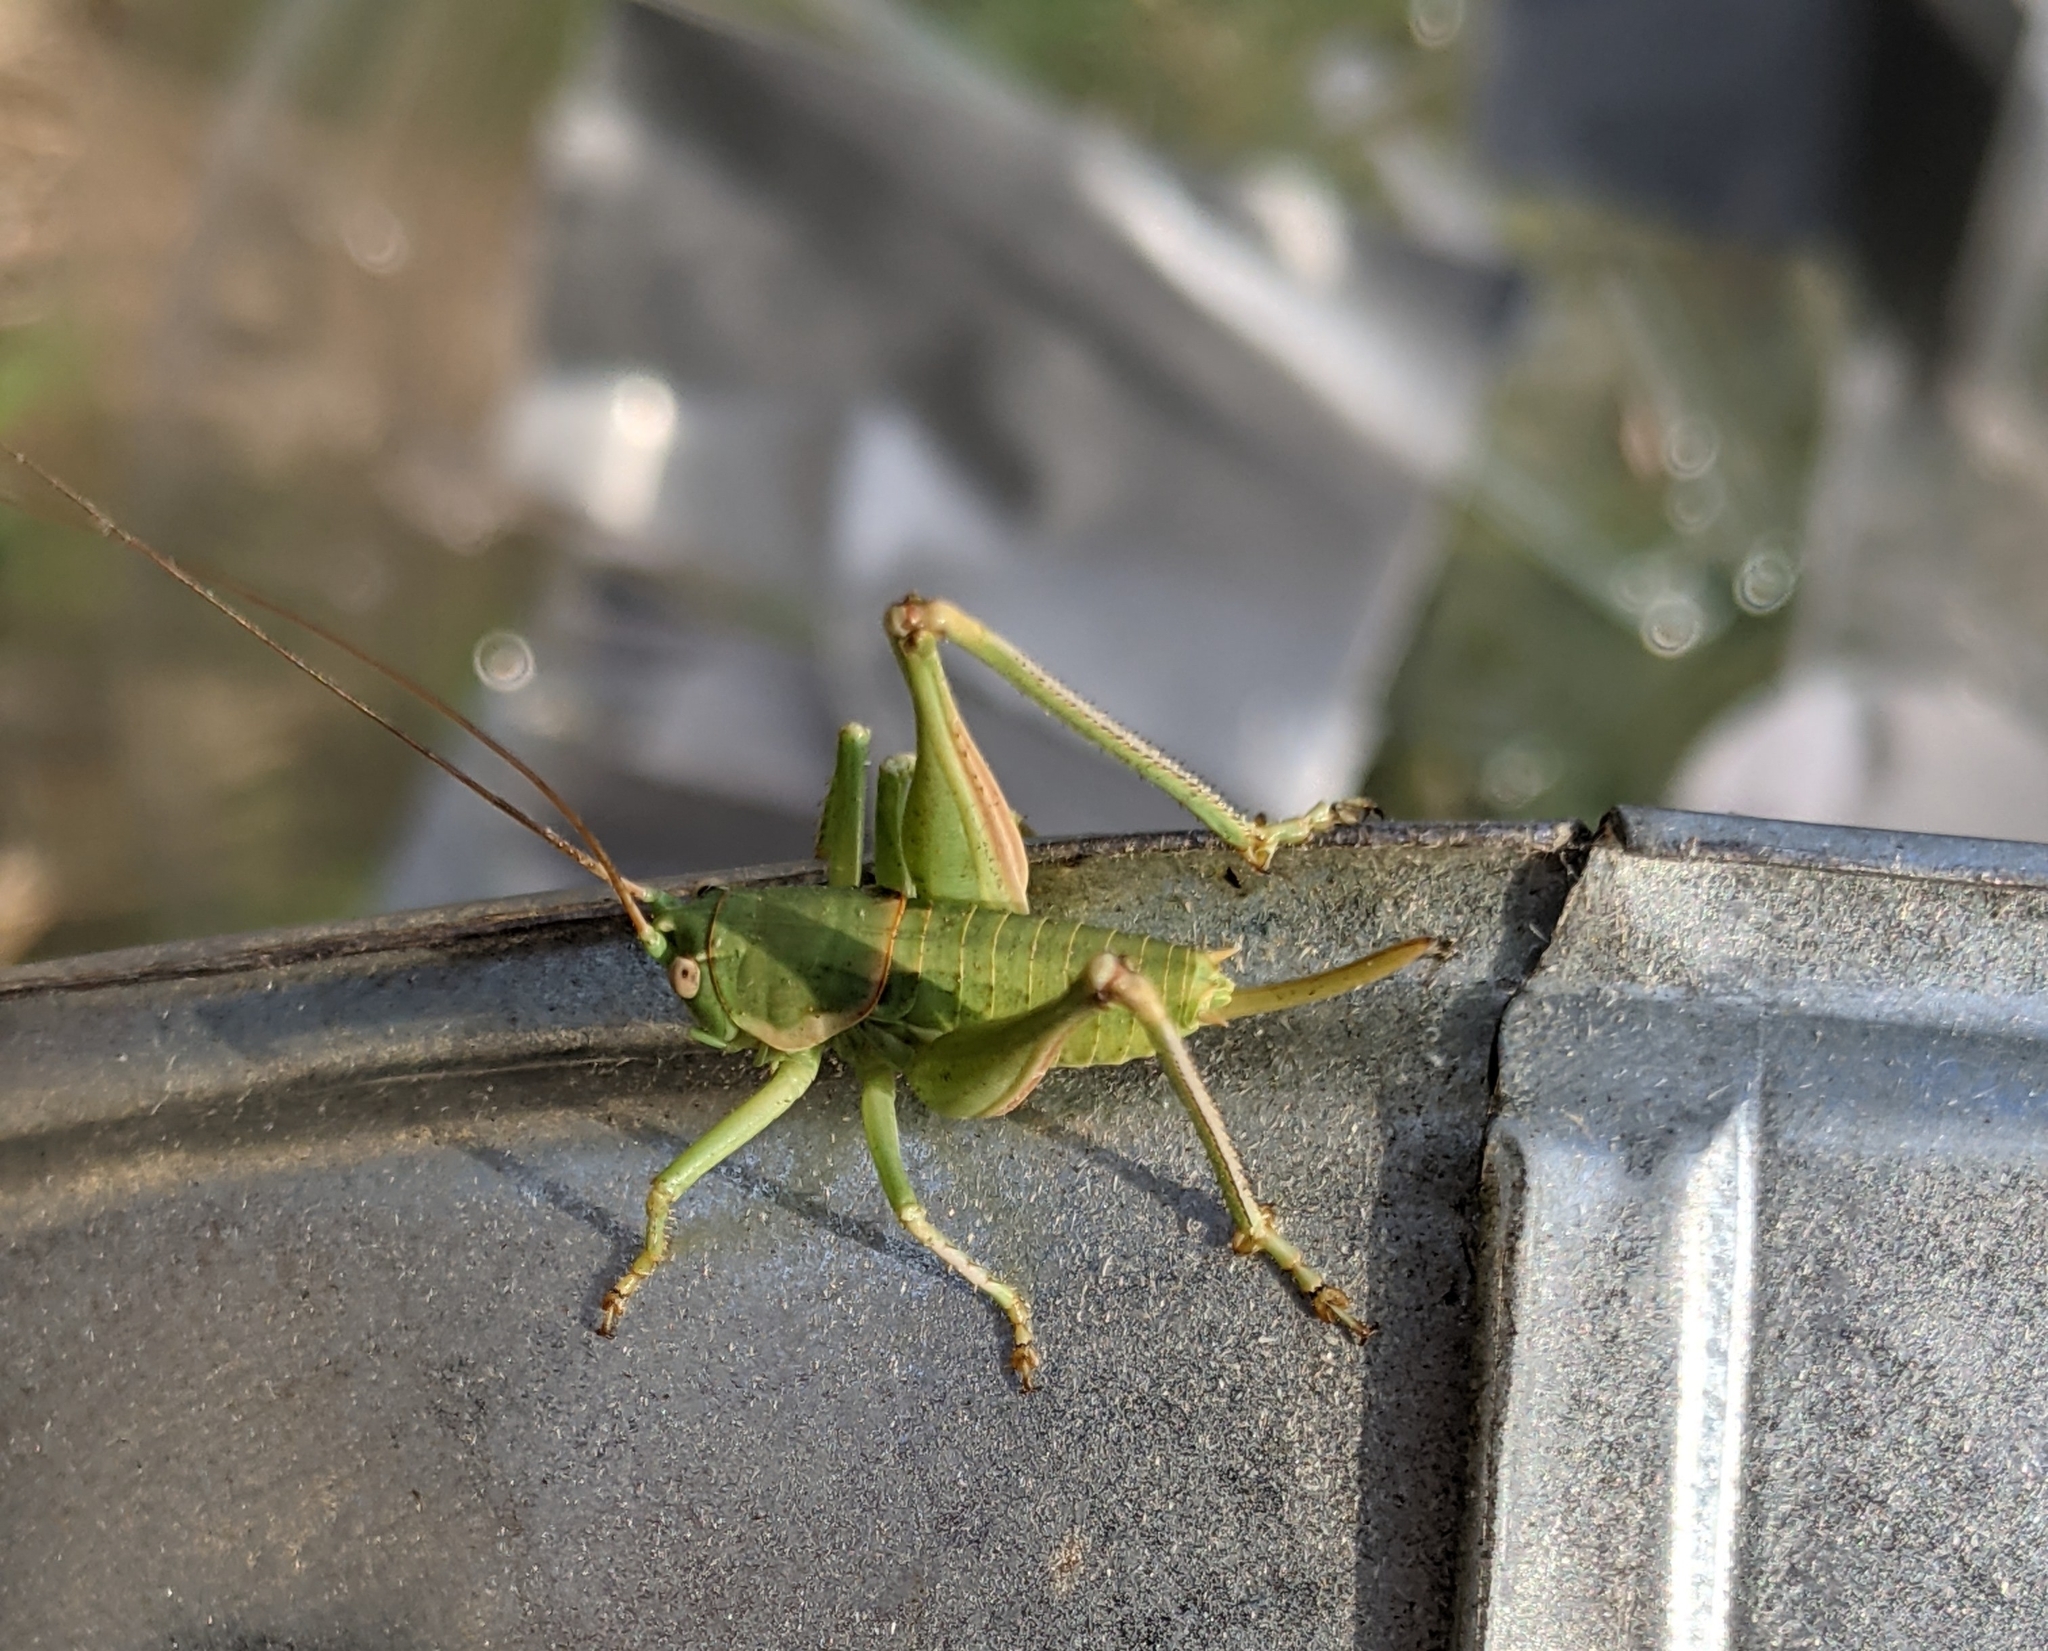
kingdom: Animalia
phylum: Arthropoda
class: Insecta
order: Orthoptera
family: Tettigoniidae
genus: Eremopedes
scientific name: Eremopedes covilleae
